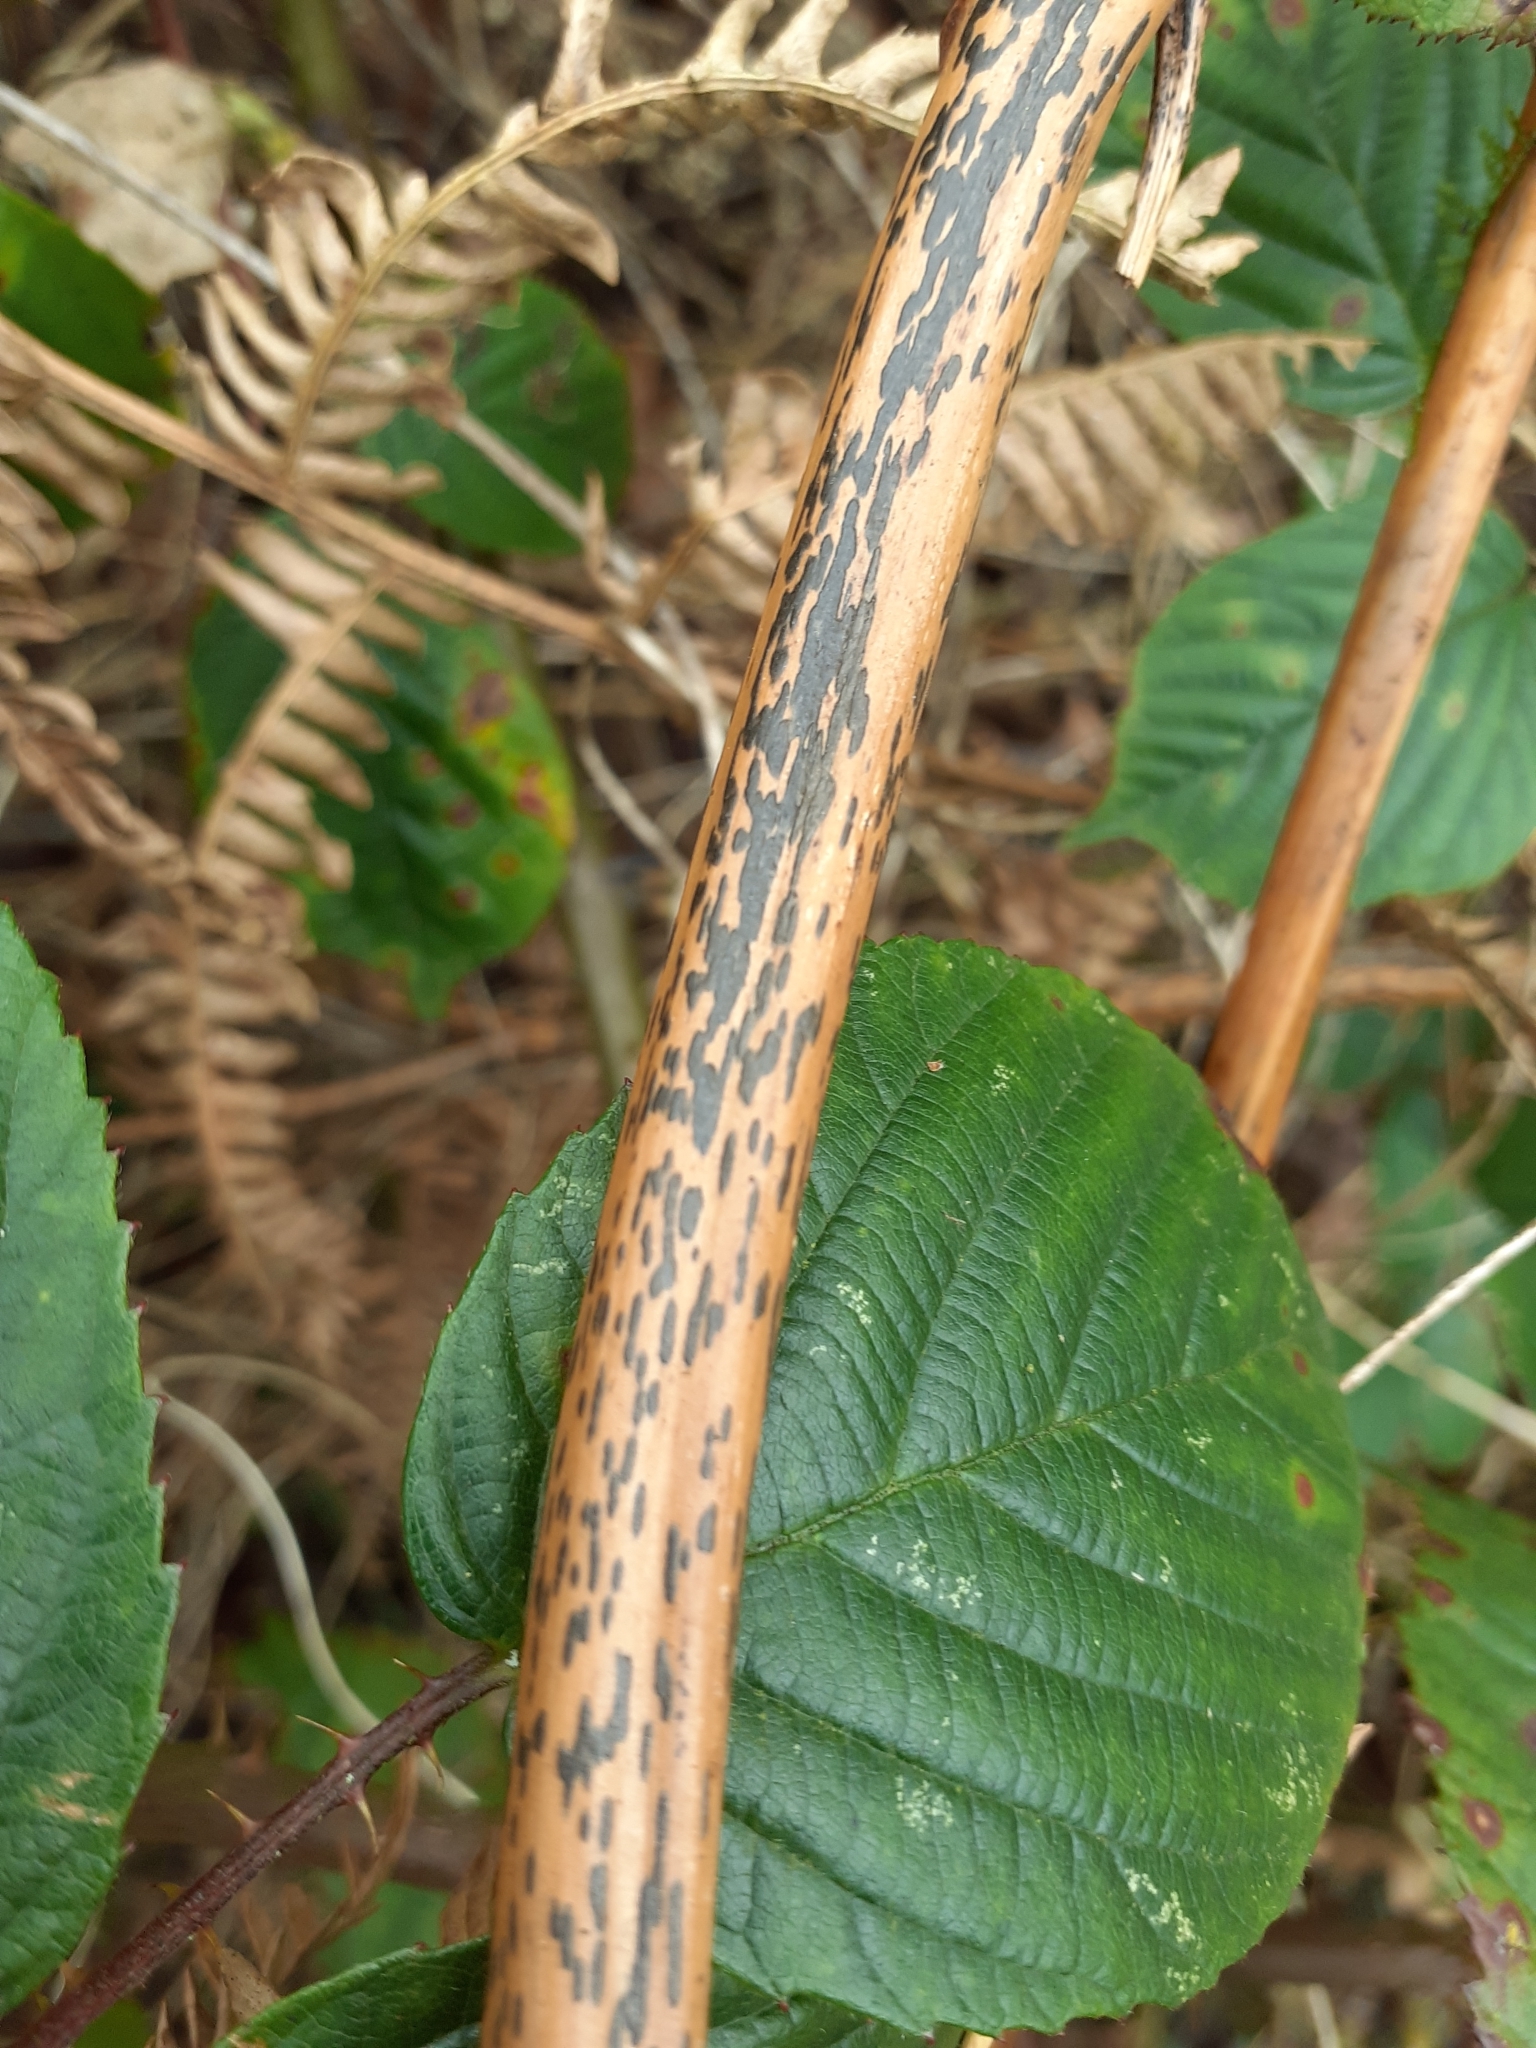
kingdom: Fungi
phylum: Ascomycota
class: Dothideomycetes
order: Pleosporales
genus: Rhopographus
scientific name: Rhopographus filicinus
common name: Bracken map
